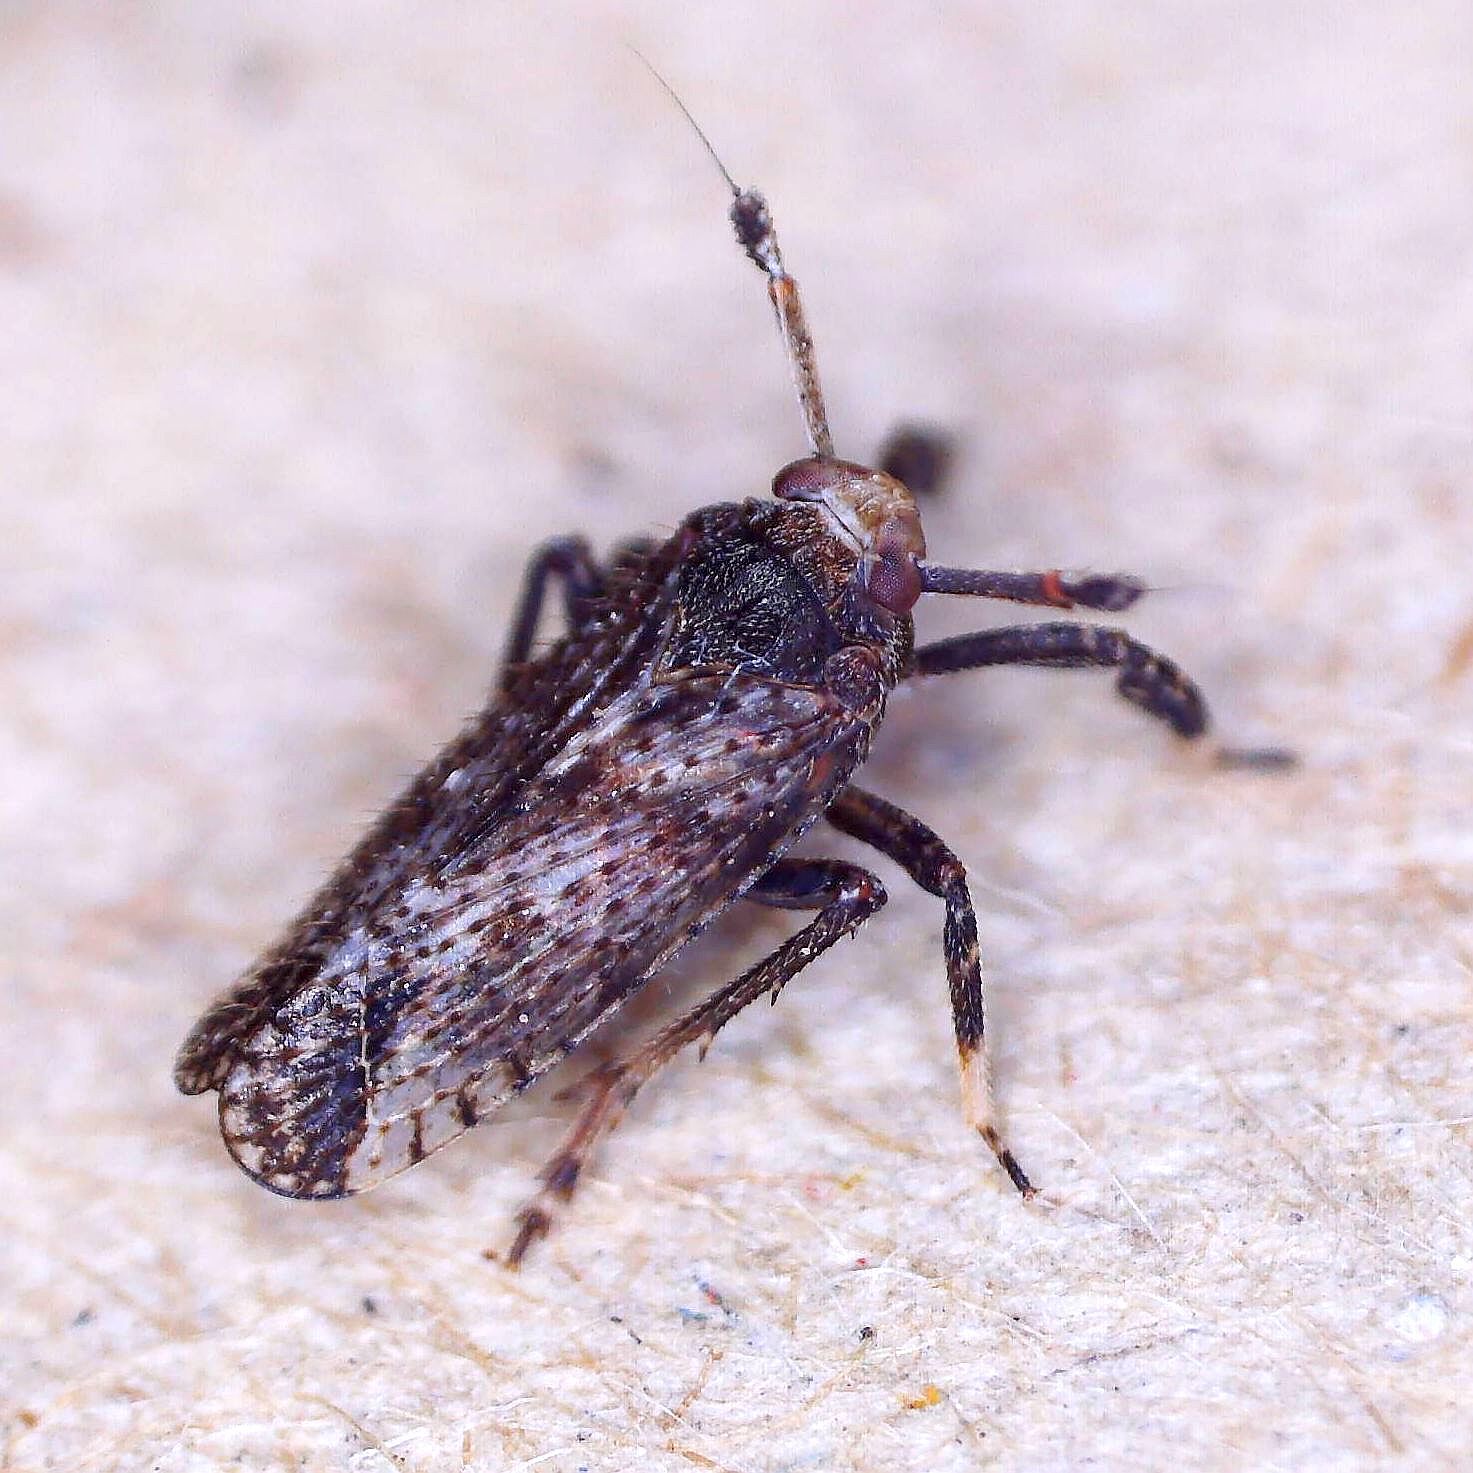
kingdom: Animalia
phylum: Arthropoda
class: Insecta
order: Hemiptera
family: Delphacidae
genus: Asiraca
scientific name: Asiraca clavicornis
